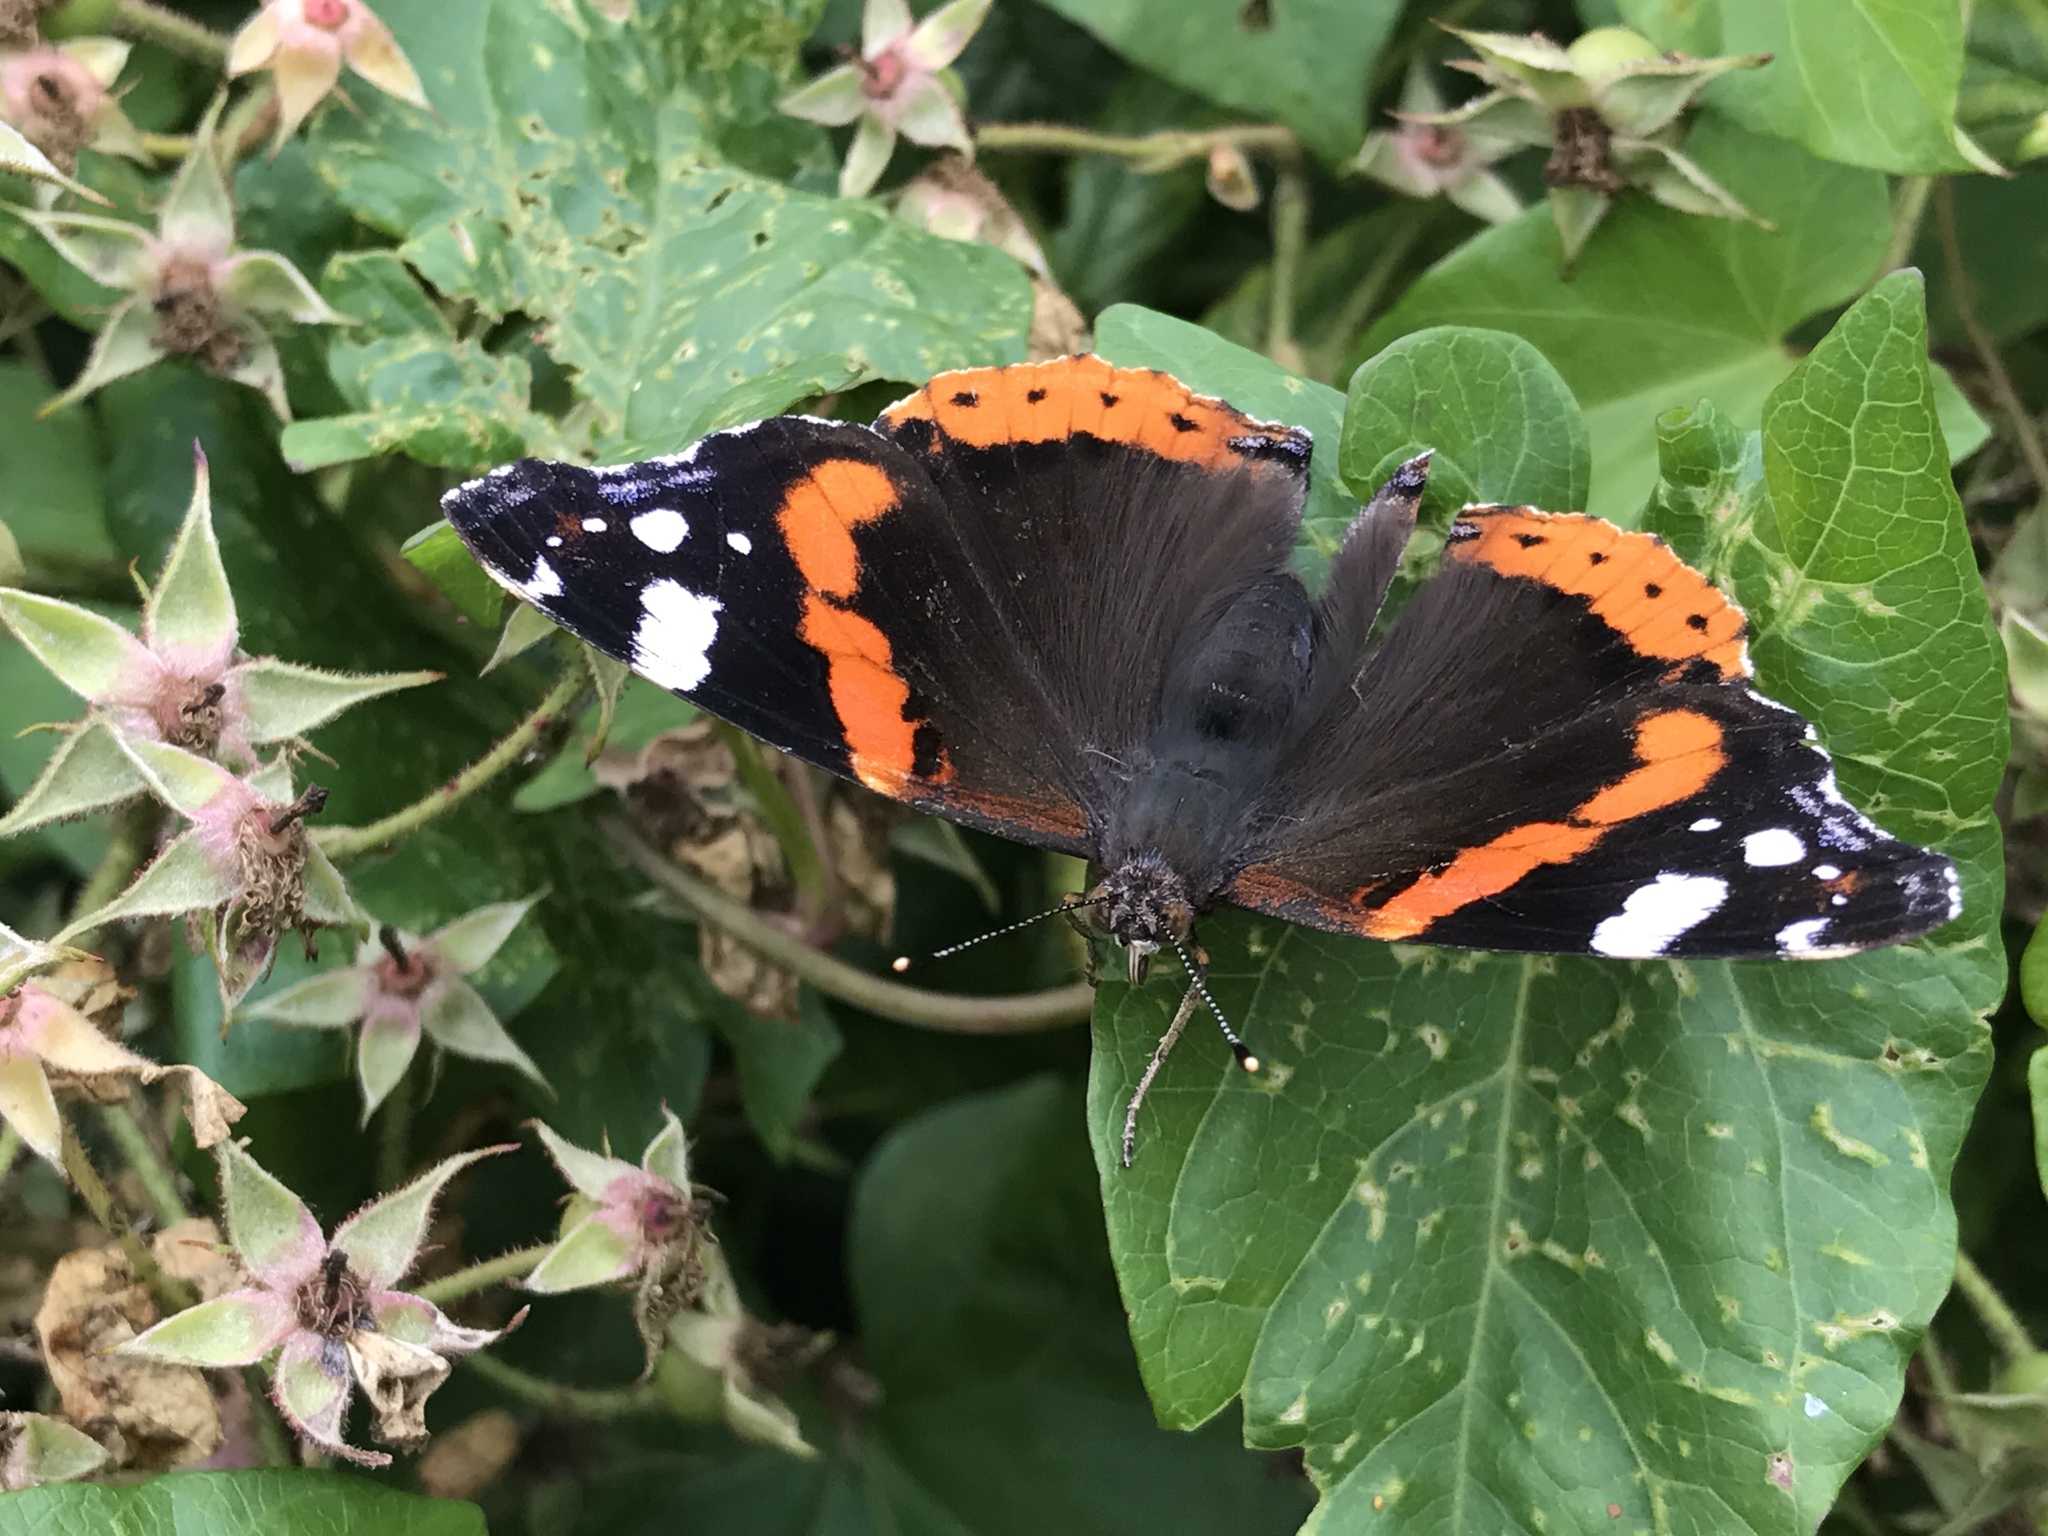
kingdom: Animalia
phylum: Arthropoda
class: Insecta
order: Lepidoptera
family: Nymphalidae
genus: Vanessa
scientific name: Vanessa atalanta
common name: Red admiral
